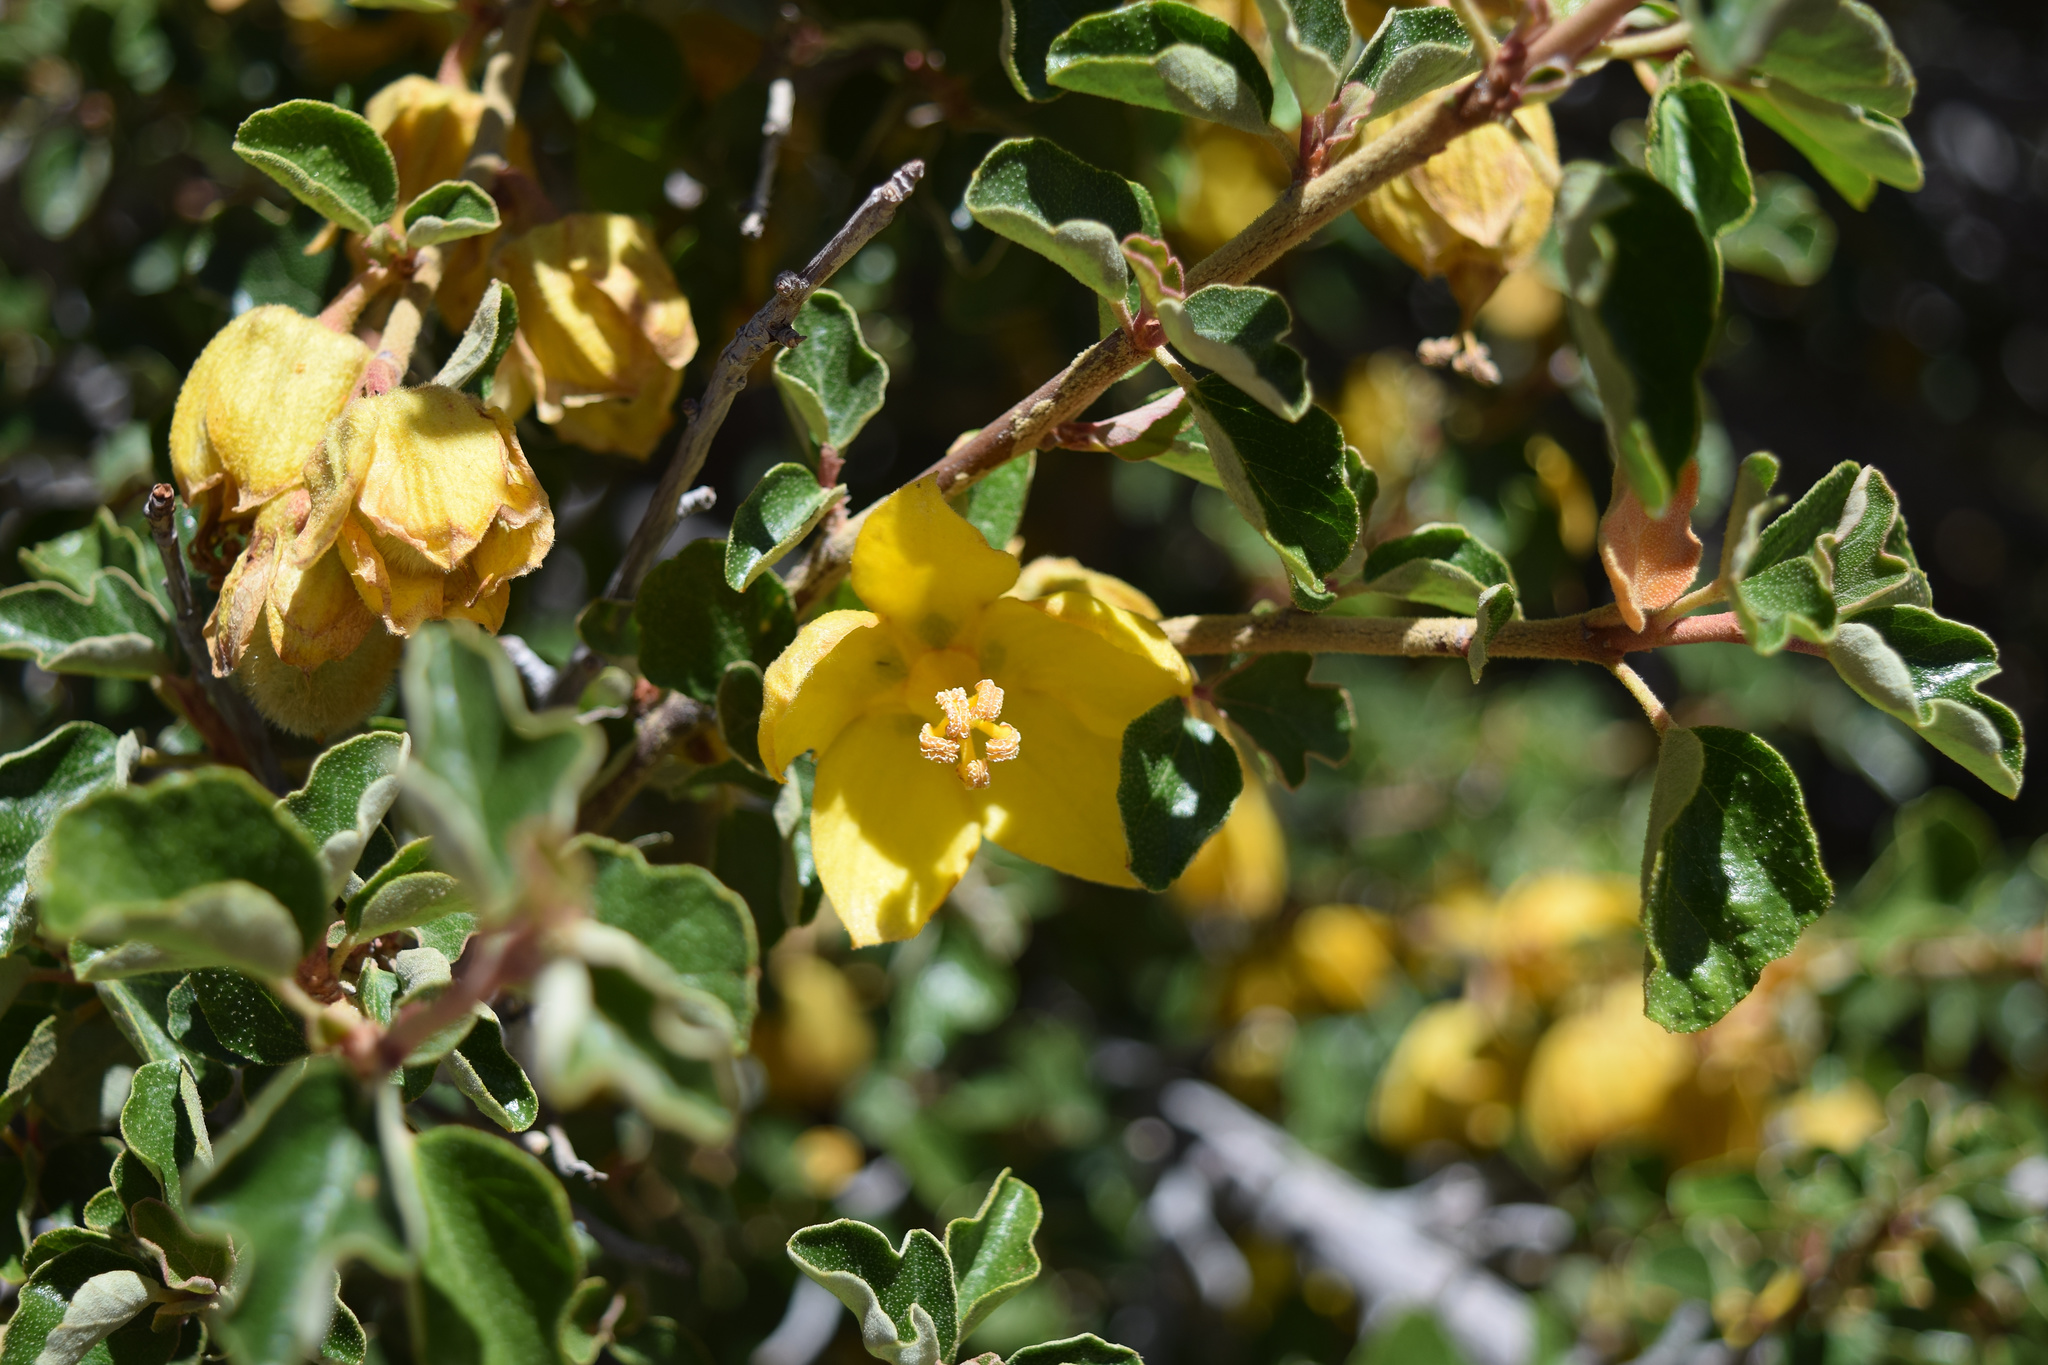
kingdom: Plantae
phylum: Tracheophyta
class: Magnoliopsida
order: Malvales
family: Malvaceae
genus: Fremontodendron
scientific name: Fremontodendron californicum
